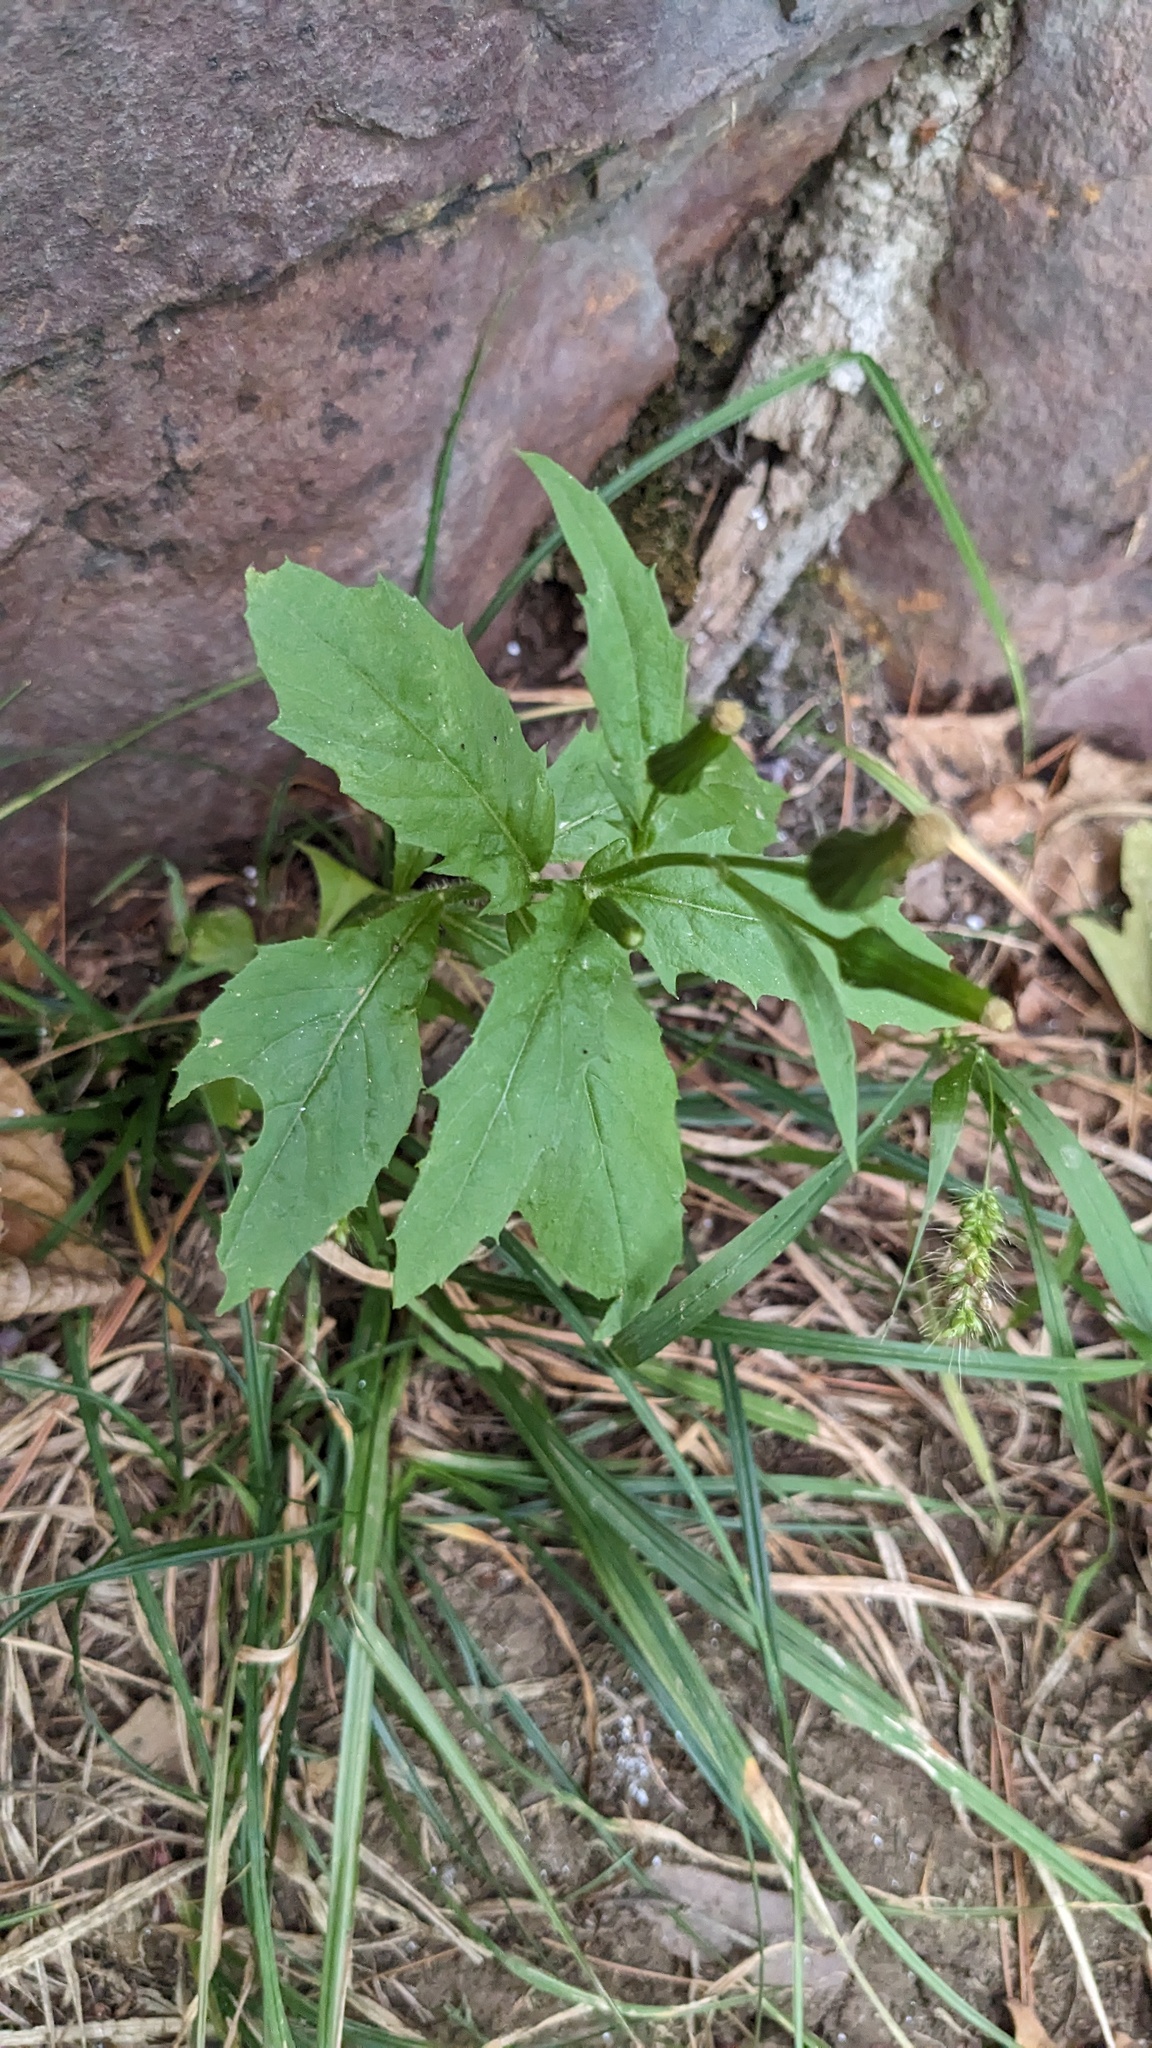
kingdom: Plantae
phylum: Tracheophyta
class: Magnoliopsida
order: Asterales
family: Asteraceae
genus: Erechtites
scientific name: Erechtites hieraciifolius
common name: American burnweed
